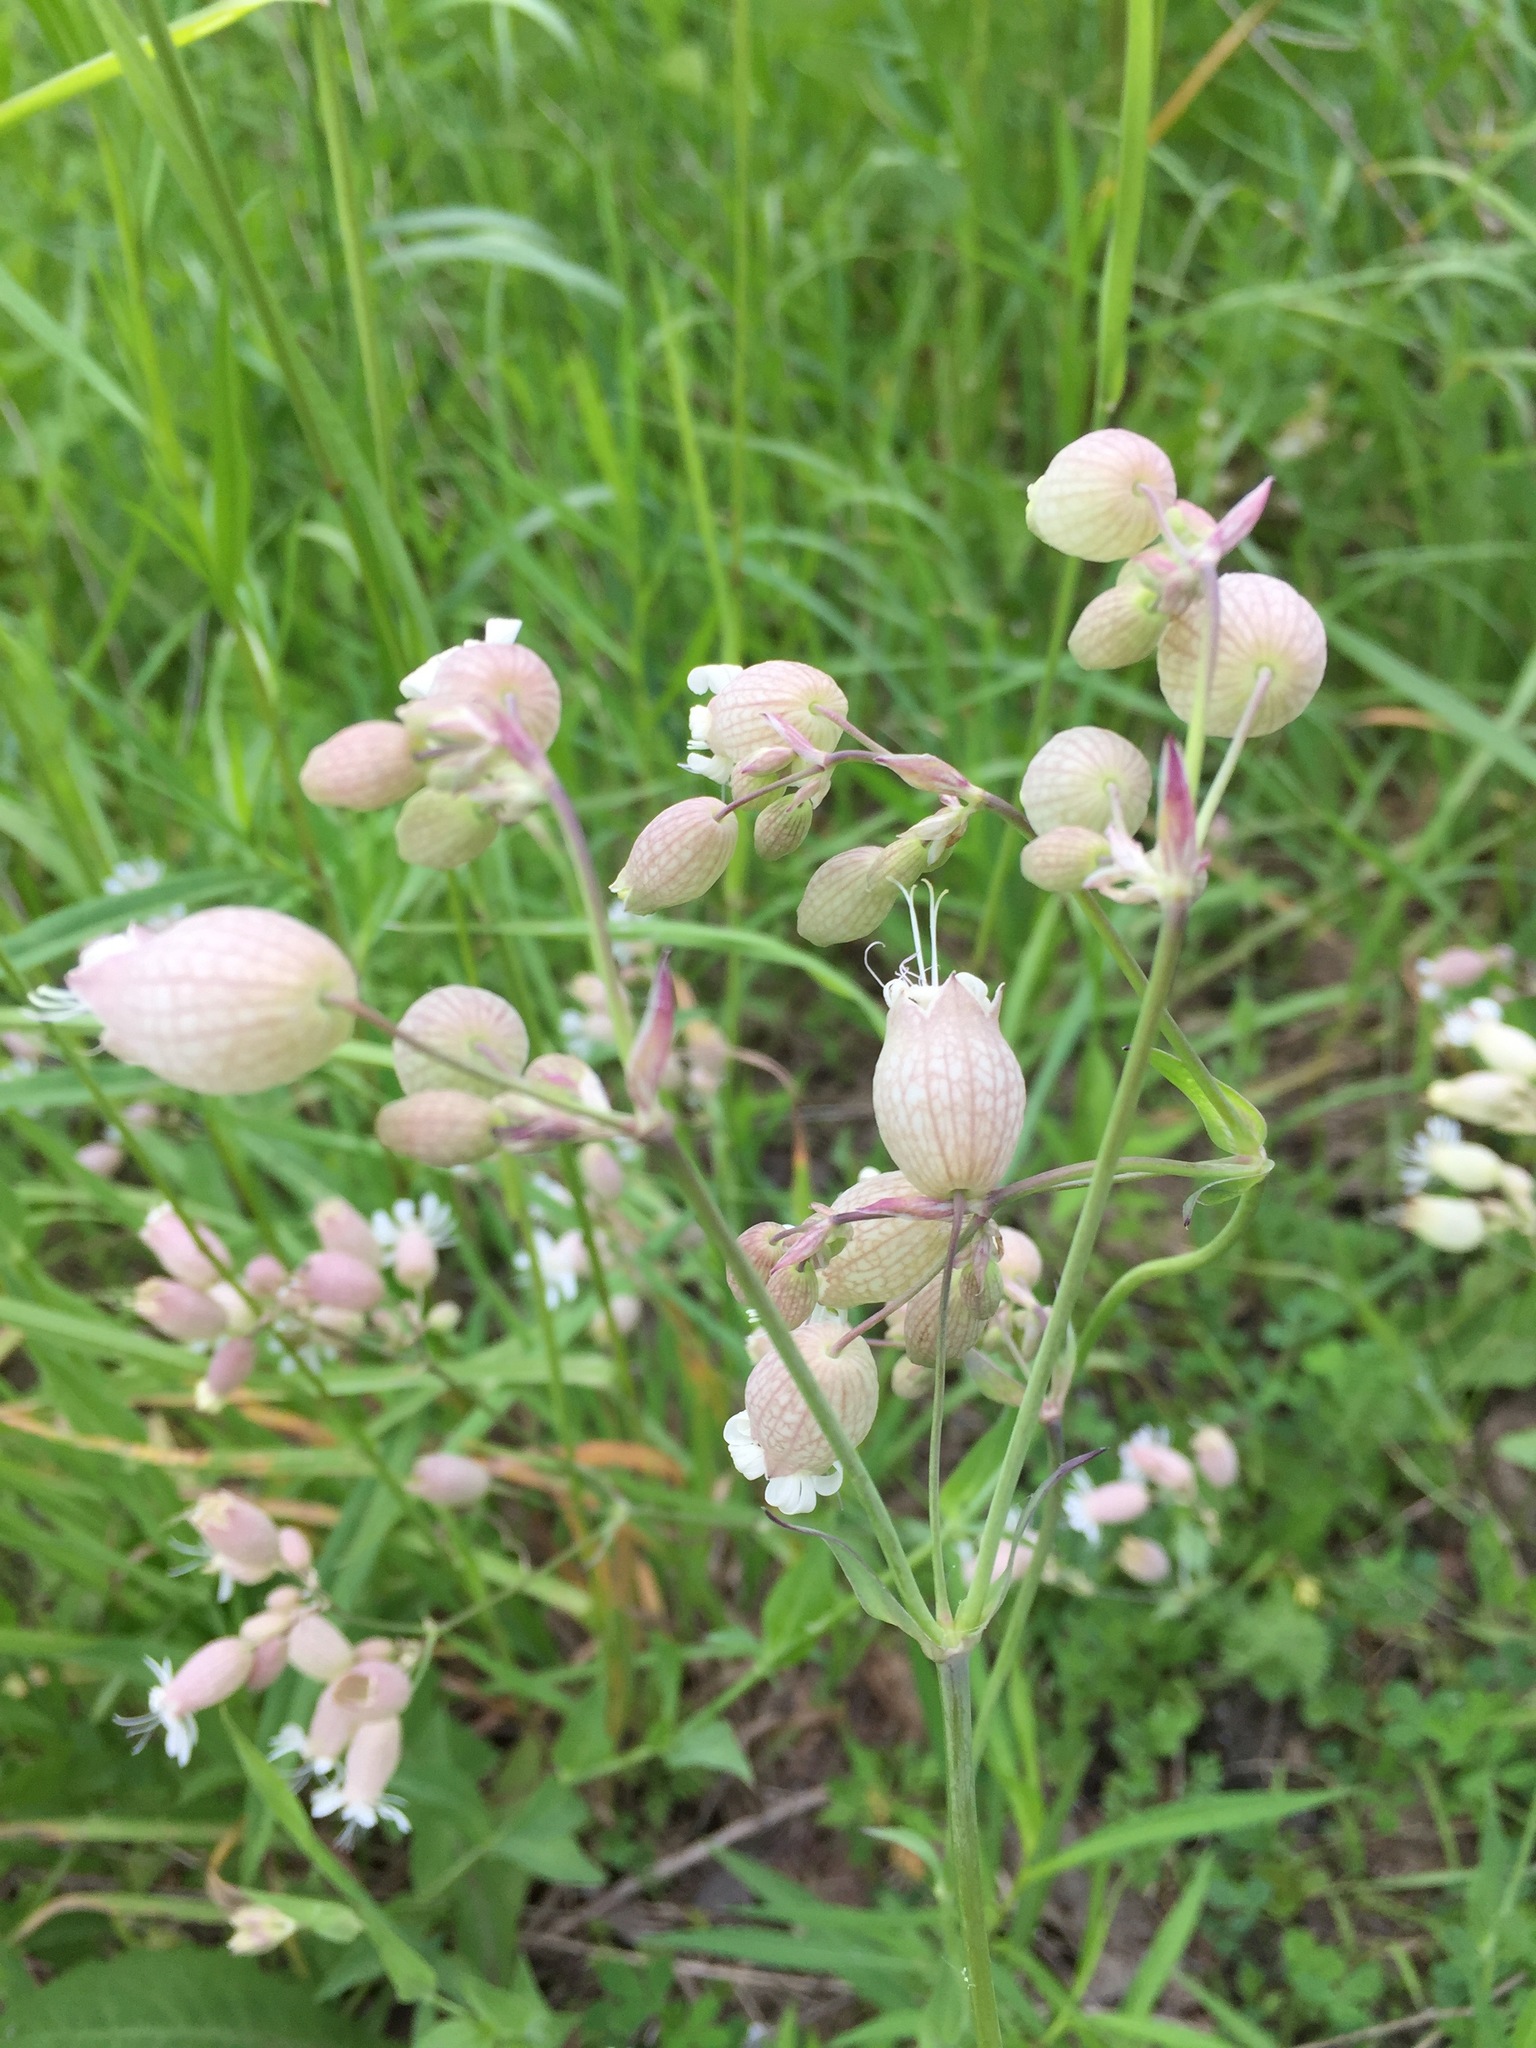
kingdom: Plantae
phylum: Tracheophyta
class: Magnoliopsida
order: Caryophyllales
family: Caryophyllaceae
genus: Silene
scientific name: Silene vulgaris
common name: Bladder campion
